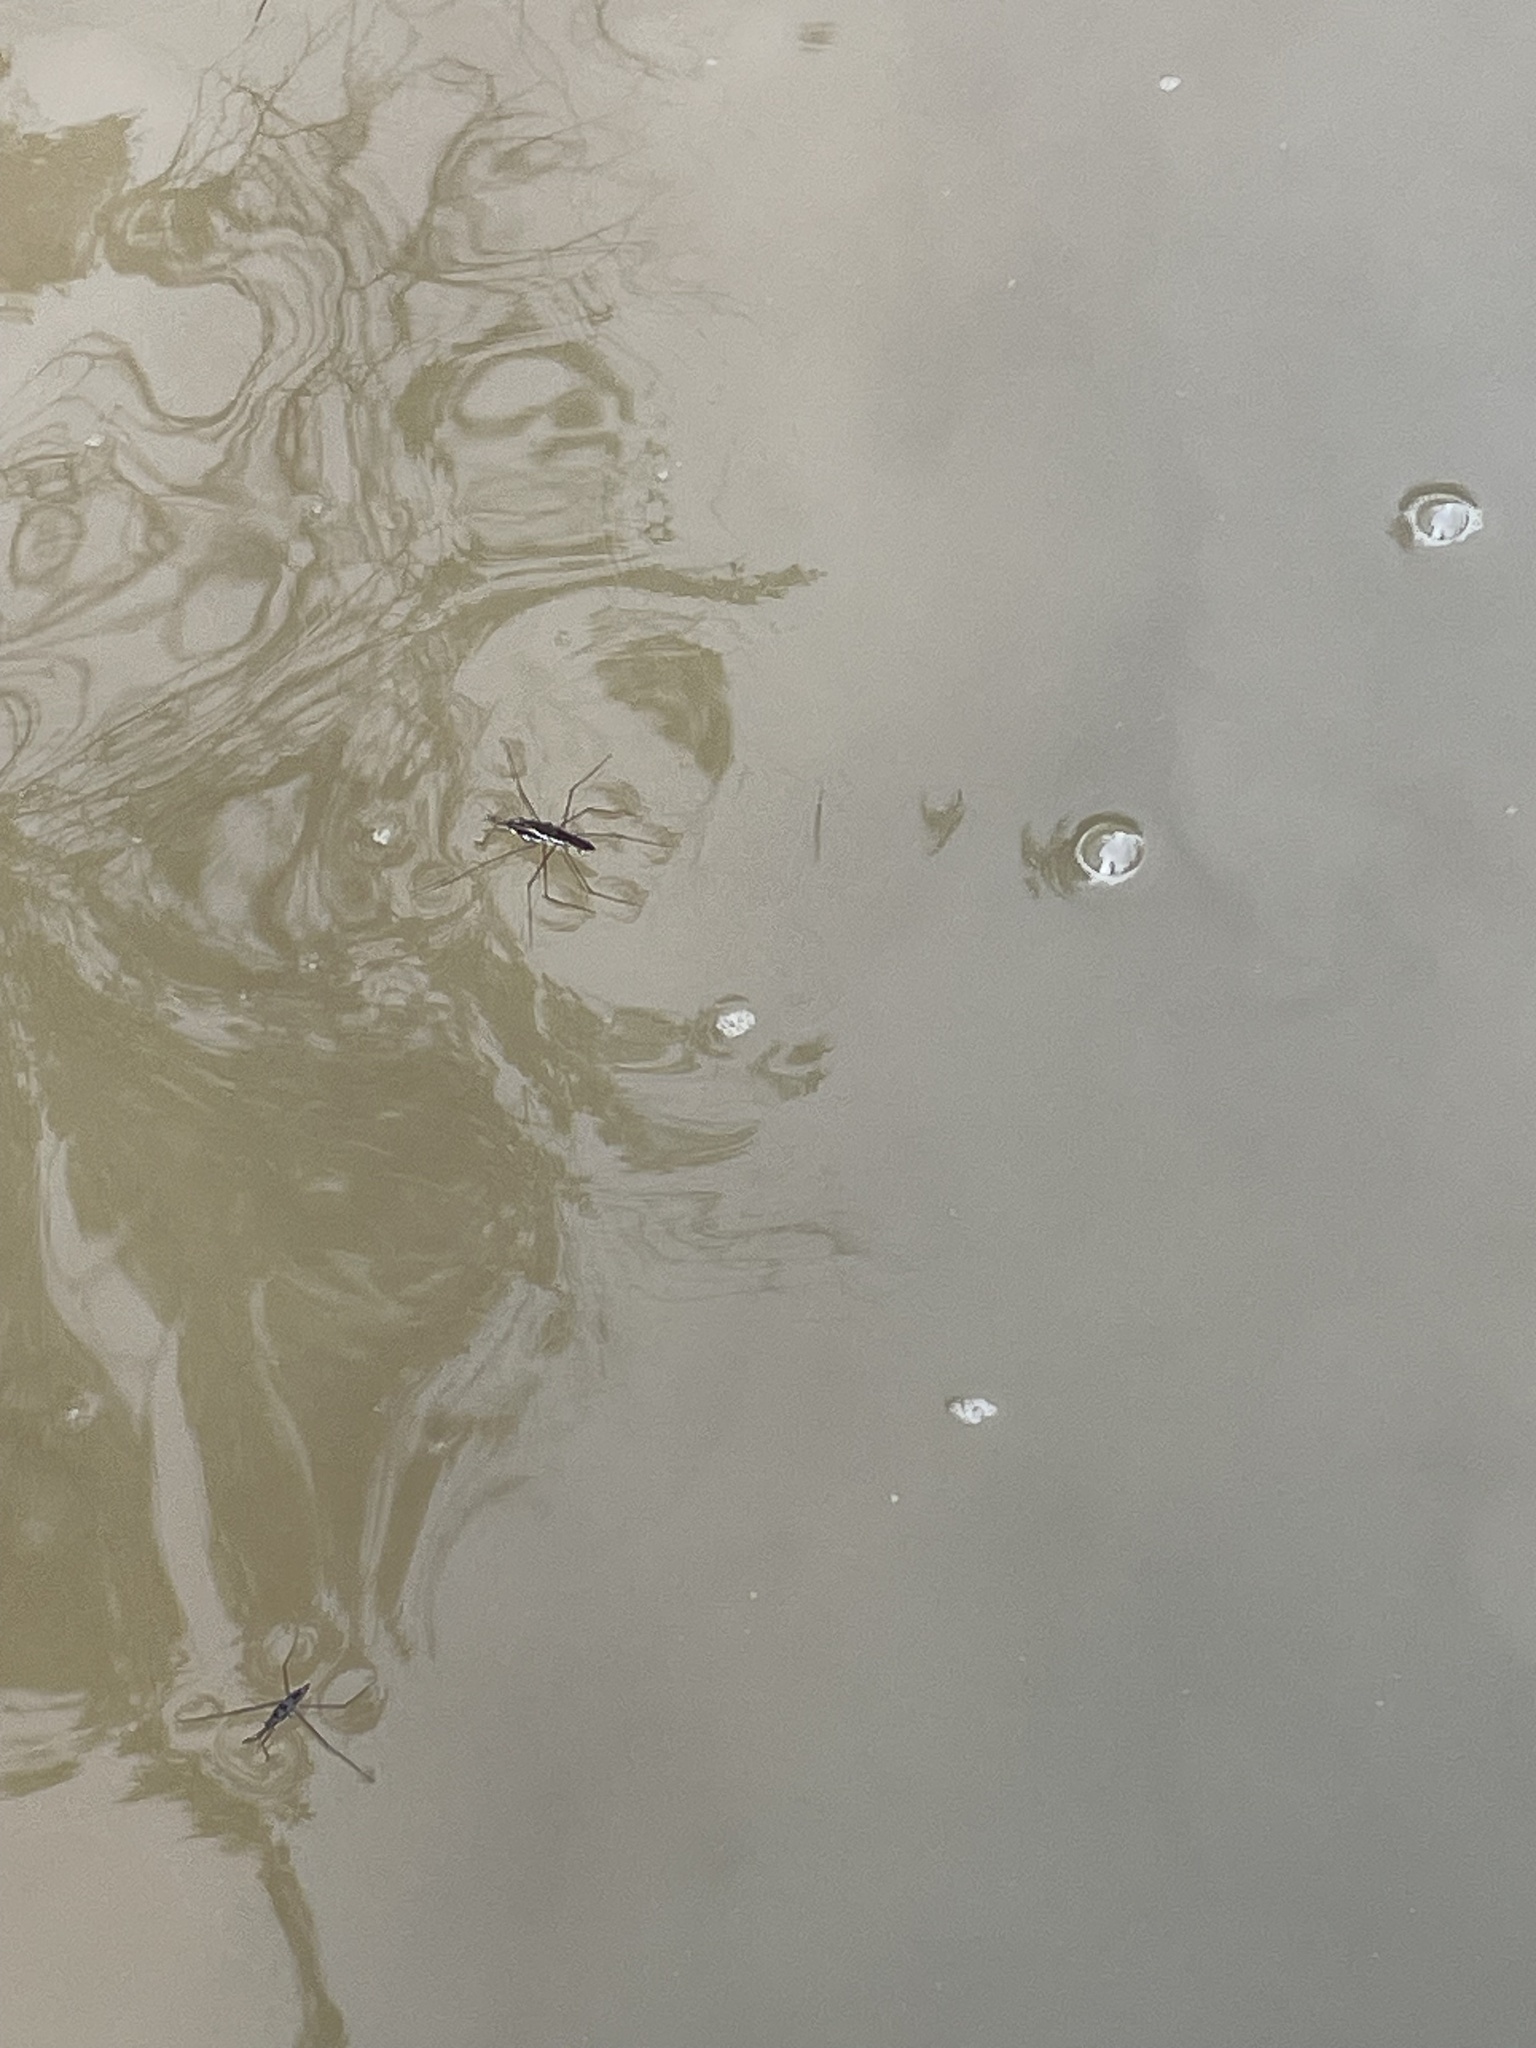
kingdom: Animalia
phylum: Arthropoda
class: Insecta
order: Hemiptera
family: Gerridae
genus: Aquarius
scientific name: Aquarius remigis
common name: Common water strider
